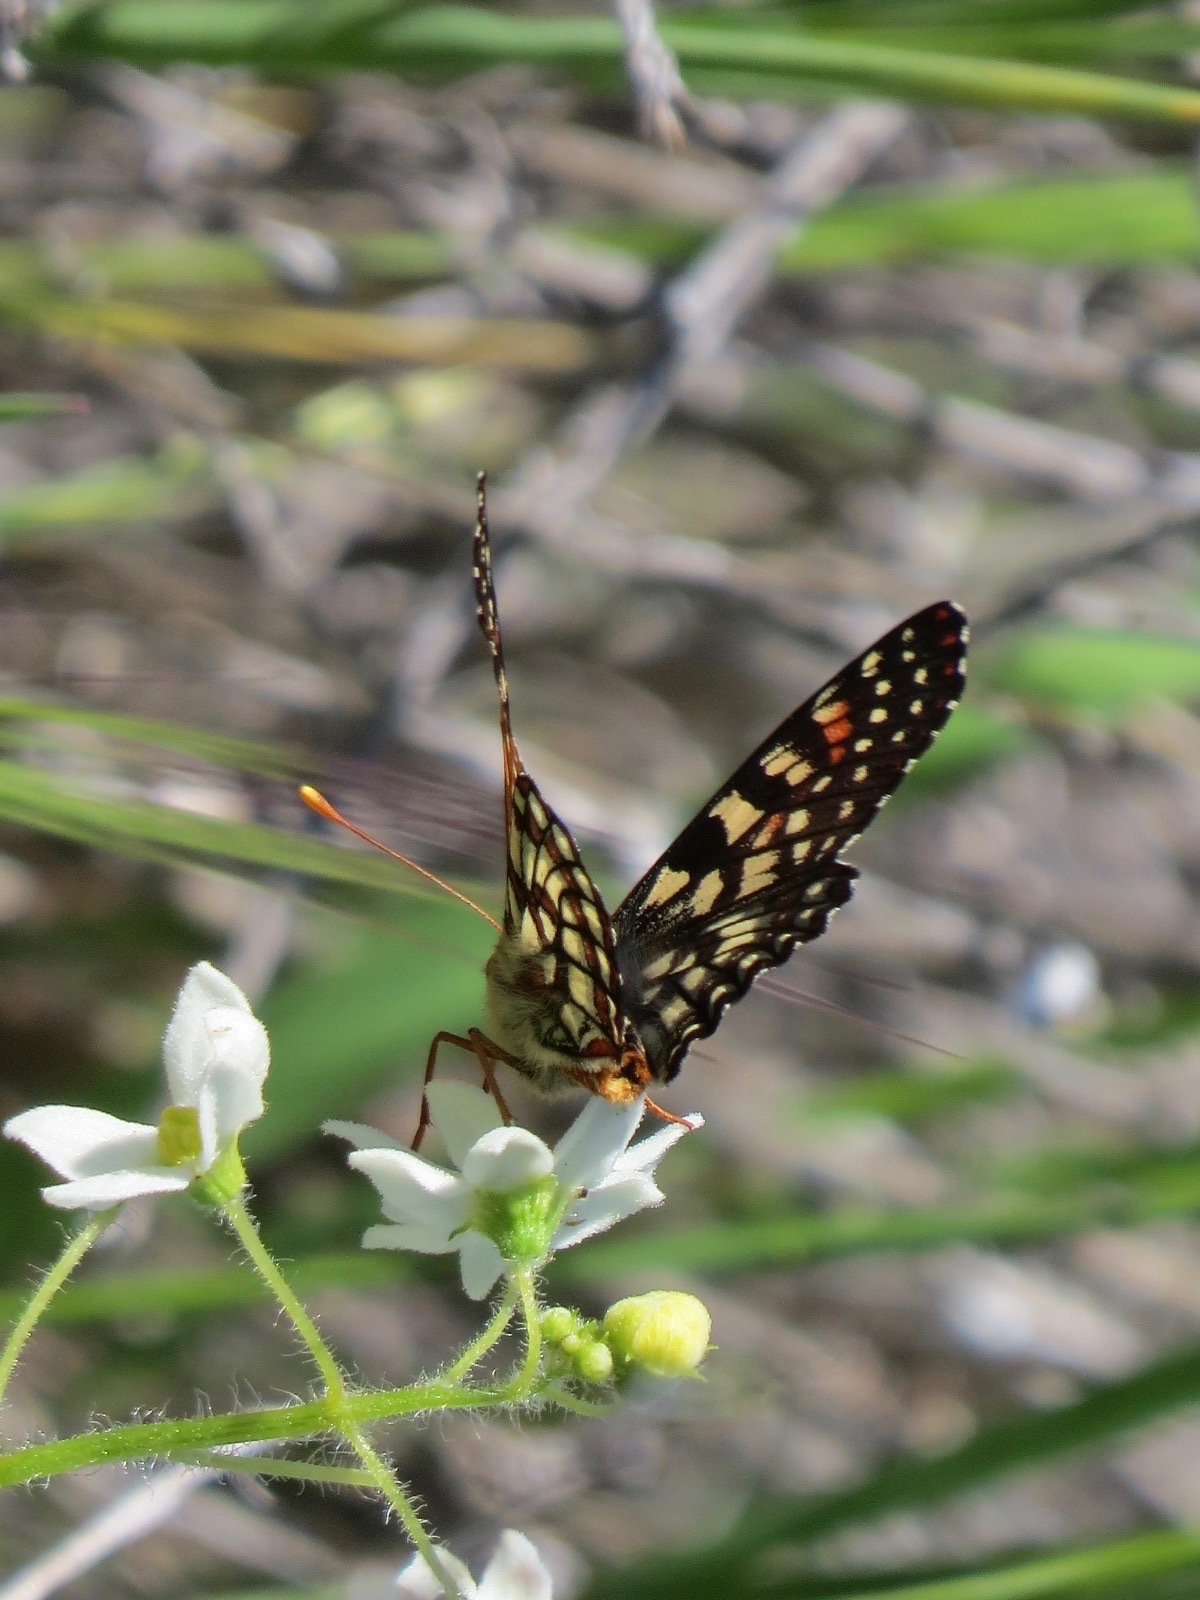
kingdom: Animalia
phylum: Arthropoda
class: Insecta
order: Lepidoptera
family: Nymphalidae
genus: Occidryas
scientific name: Occidryas chalcedona
